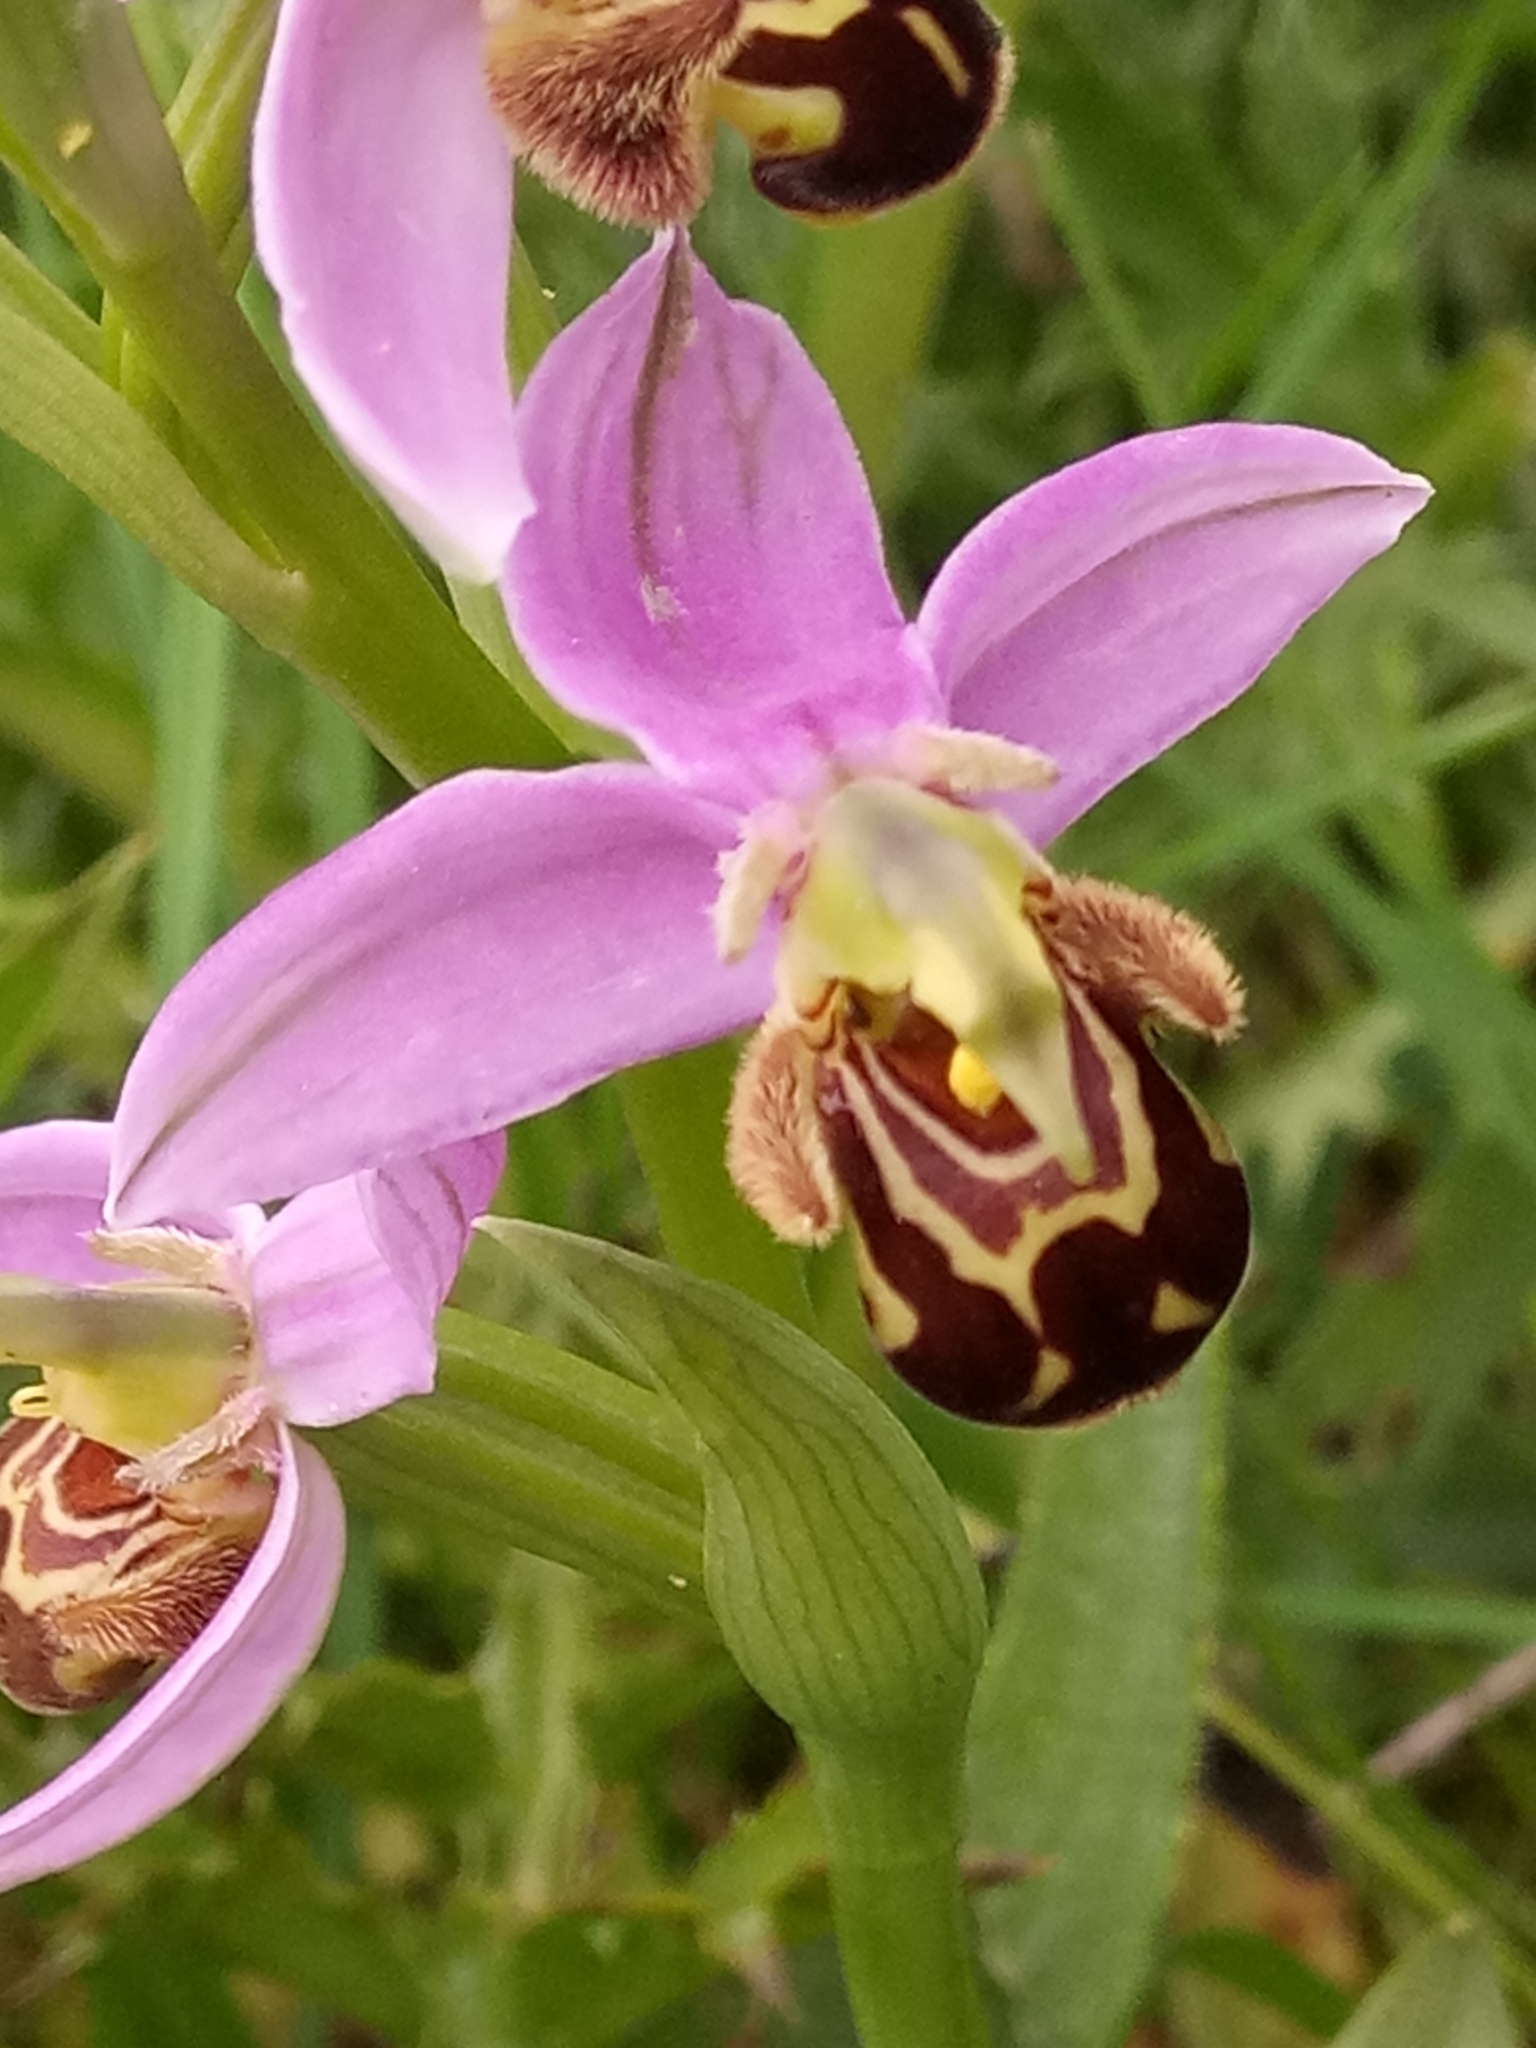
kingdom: Plantae
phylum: Tracheophyta
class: Liliopsida
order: Asparagales
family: Orchidaceae
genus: Ophrys
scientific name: Ophrys apifera
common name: Bee orchid
